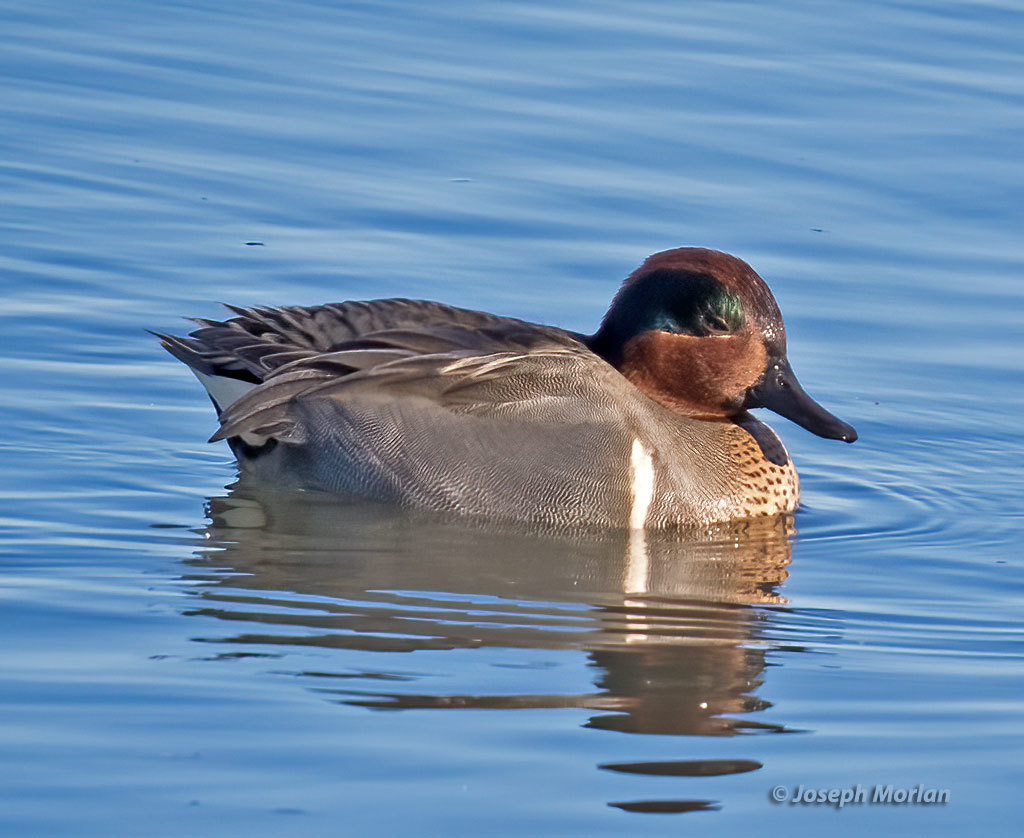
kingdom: Animalia
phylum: Chordata
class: Aves
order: Anseriformes
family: Anatidae
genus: Anas
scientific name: Anas crecca
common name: Eurasian teal
